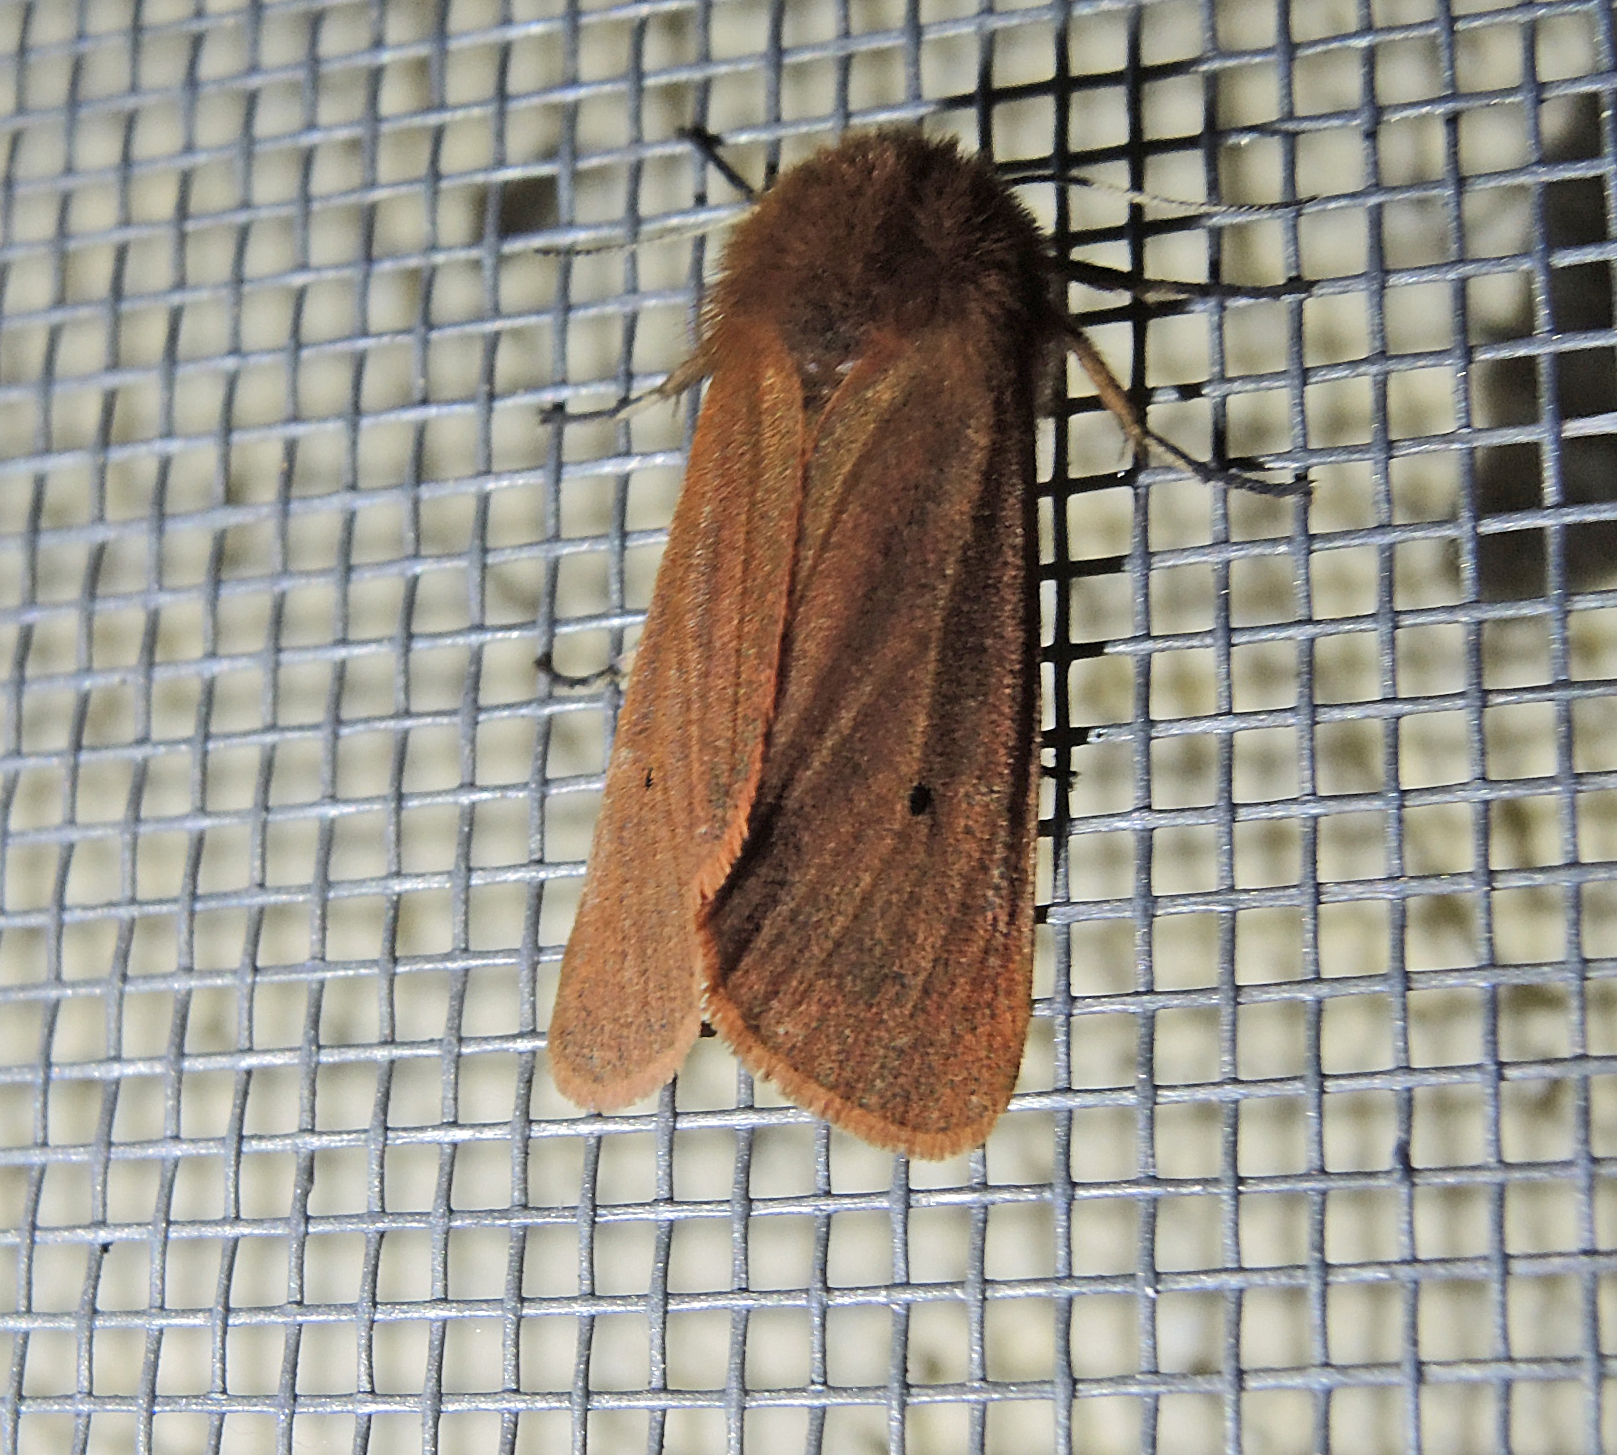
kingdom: Animalia
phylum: Arthropoda
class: Insecta
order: Lepidoptera
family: Erebidae
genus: Phragmatobia
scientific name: Phragmatobia fuliginosa
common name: Ruby tiger
